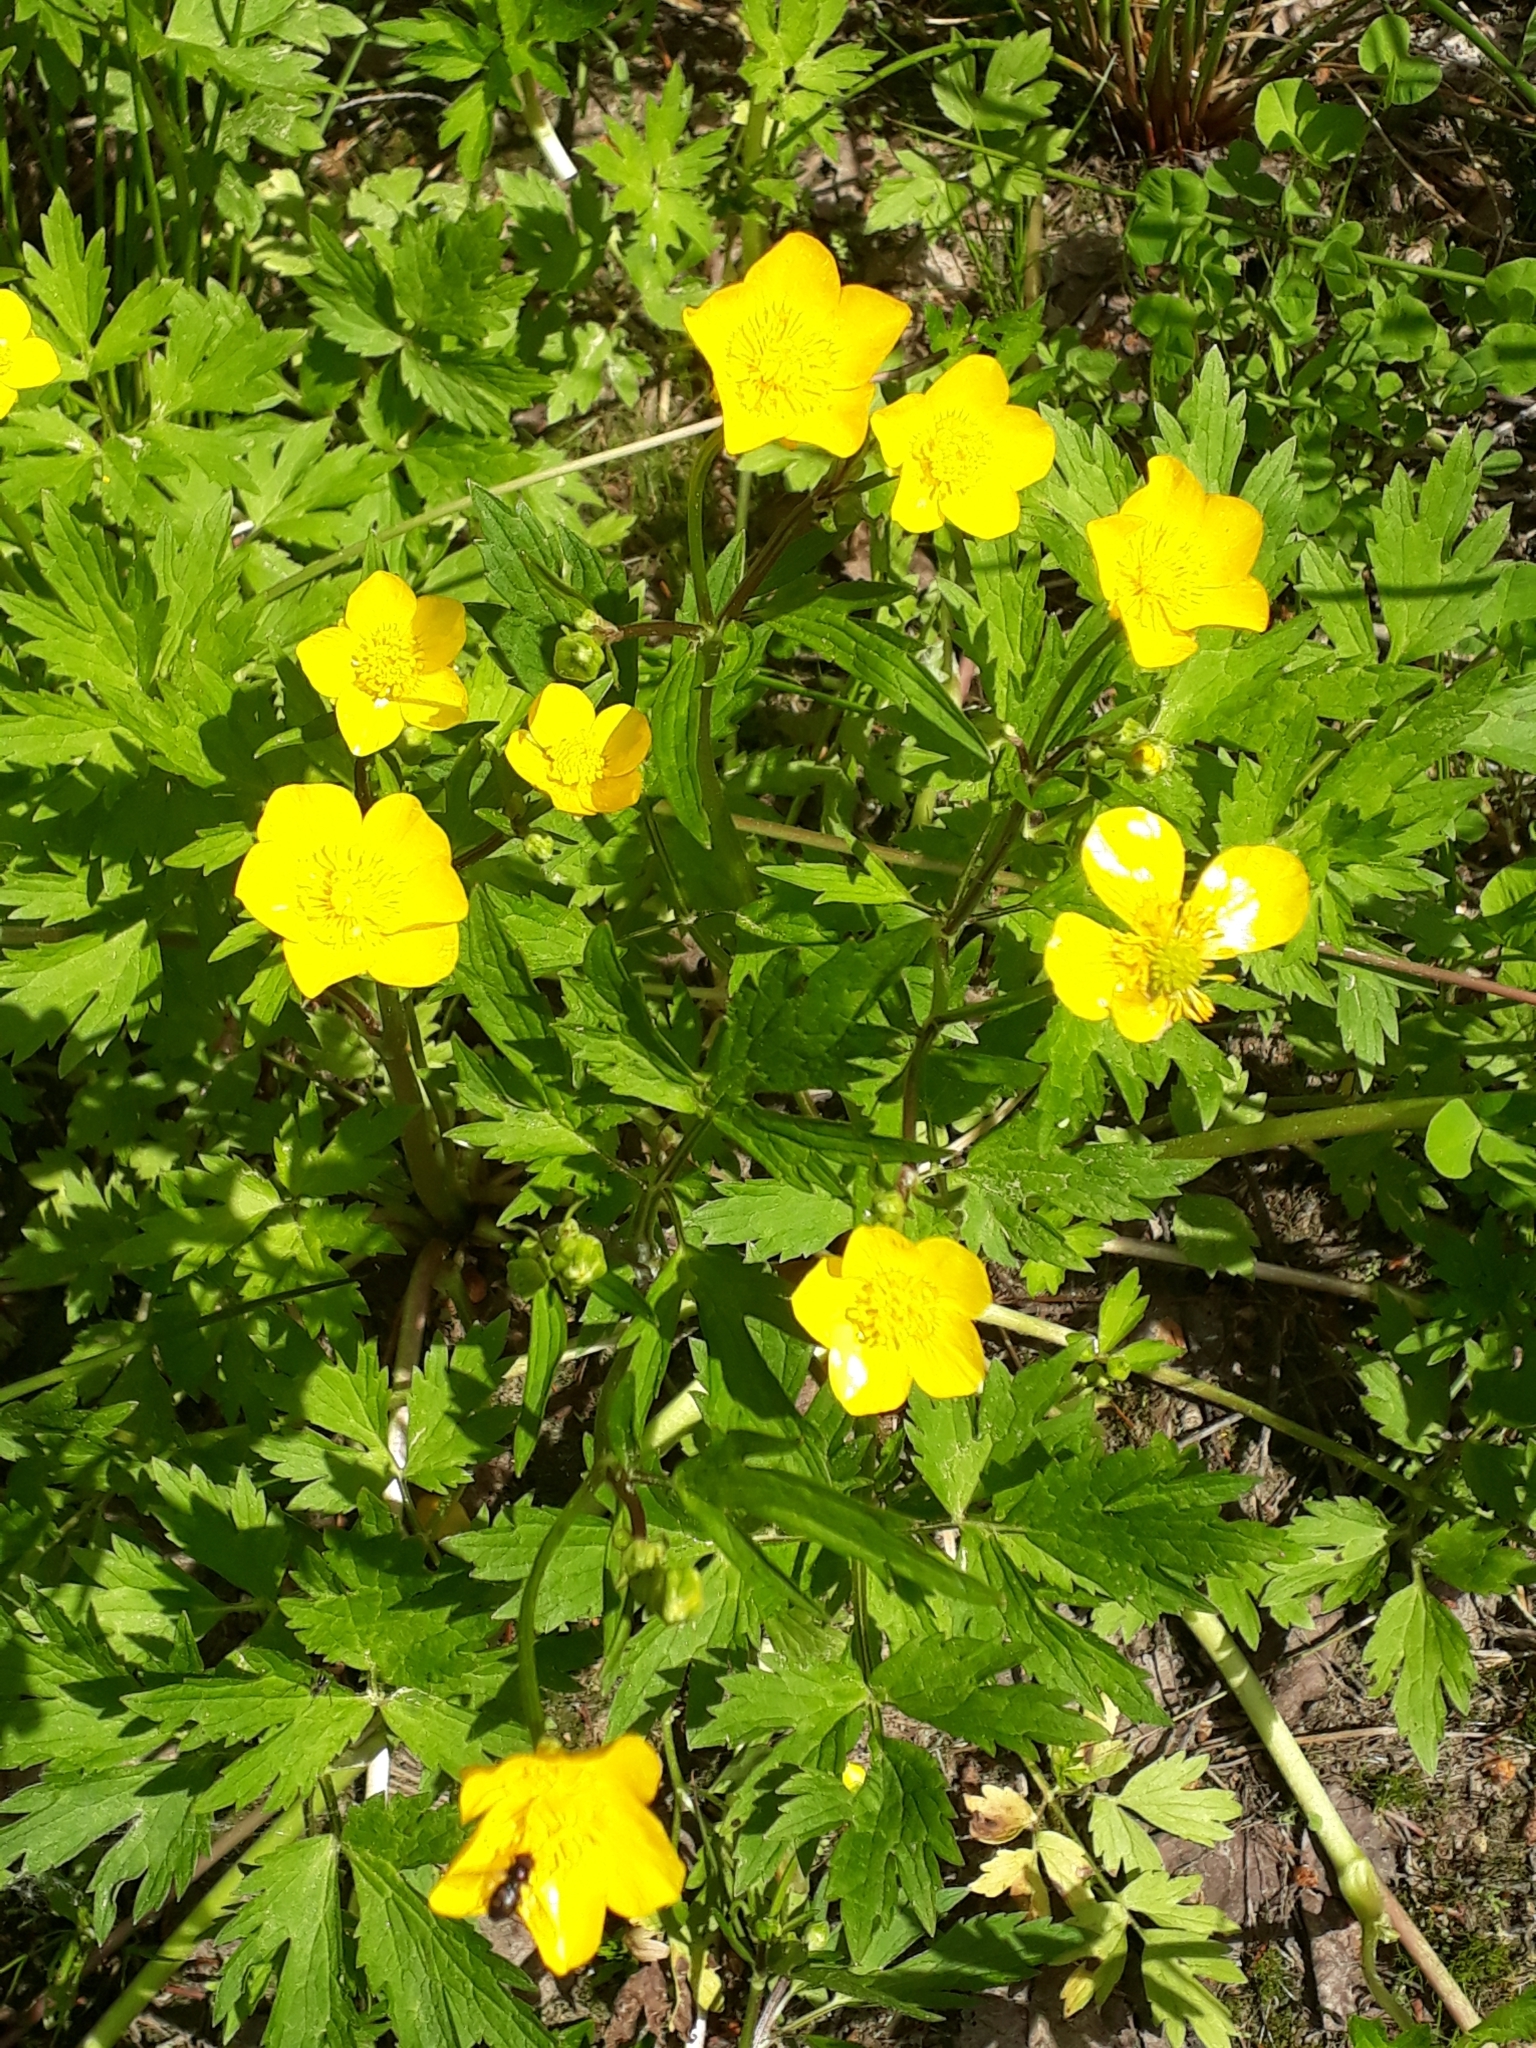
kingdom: Plantae
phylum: Tracheophyta
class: Magnoliopsida
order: Ranunculales
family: Ranunculaceae
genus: Ranunculus
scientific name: Ranunculus repens
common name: Creeping buttercup
